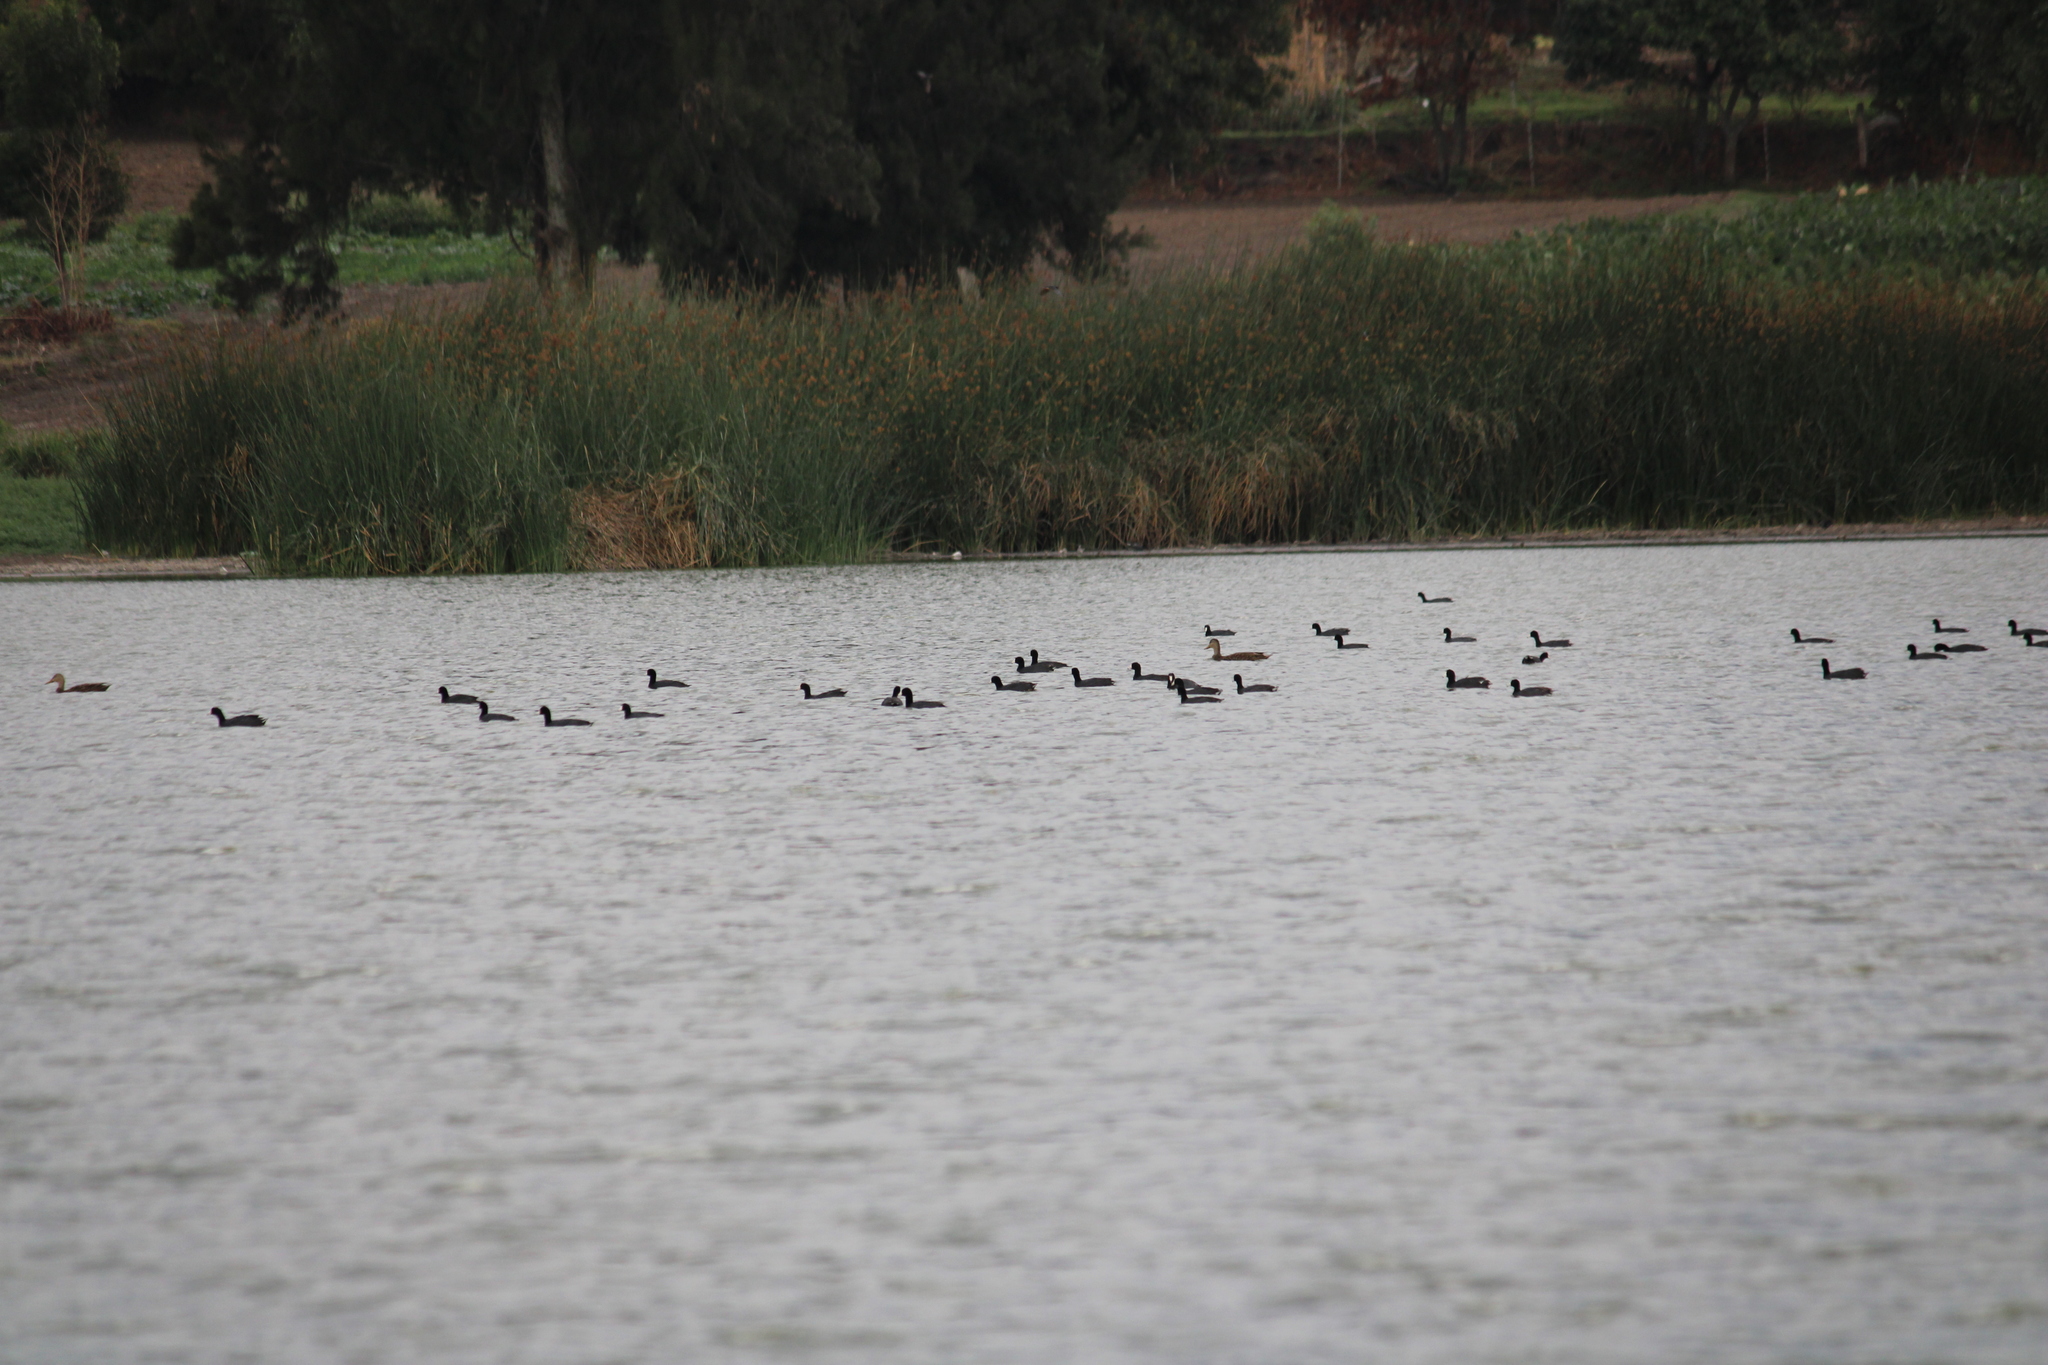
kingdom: Animalia
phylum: Chordata
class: Aves
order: Gruiformes
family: Rallidae
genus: Fulica
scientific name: Fulica americana
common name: American coot
